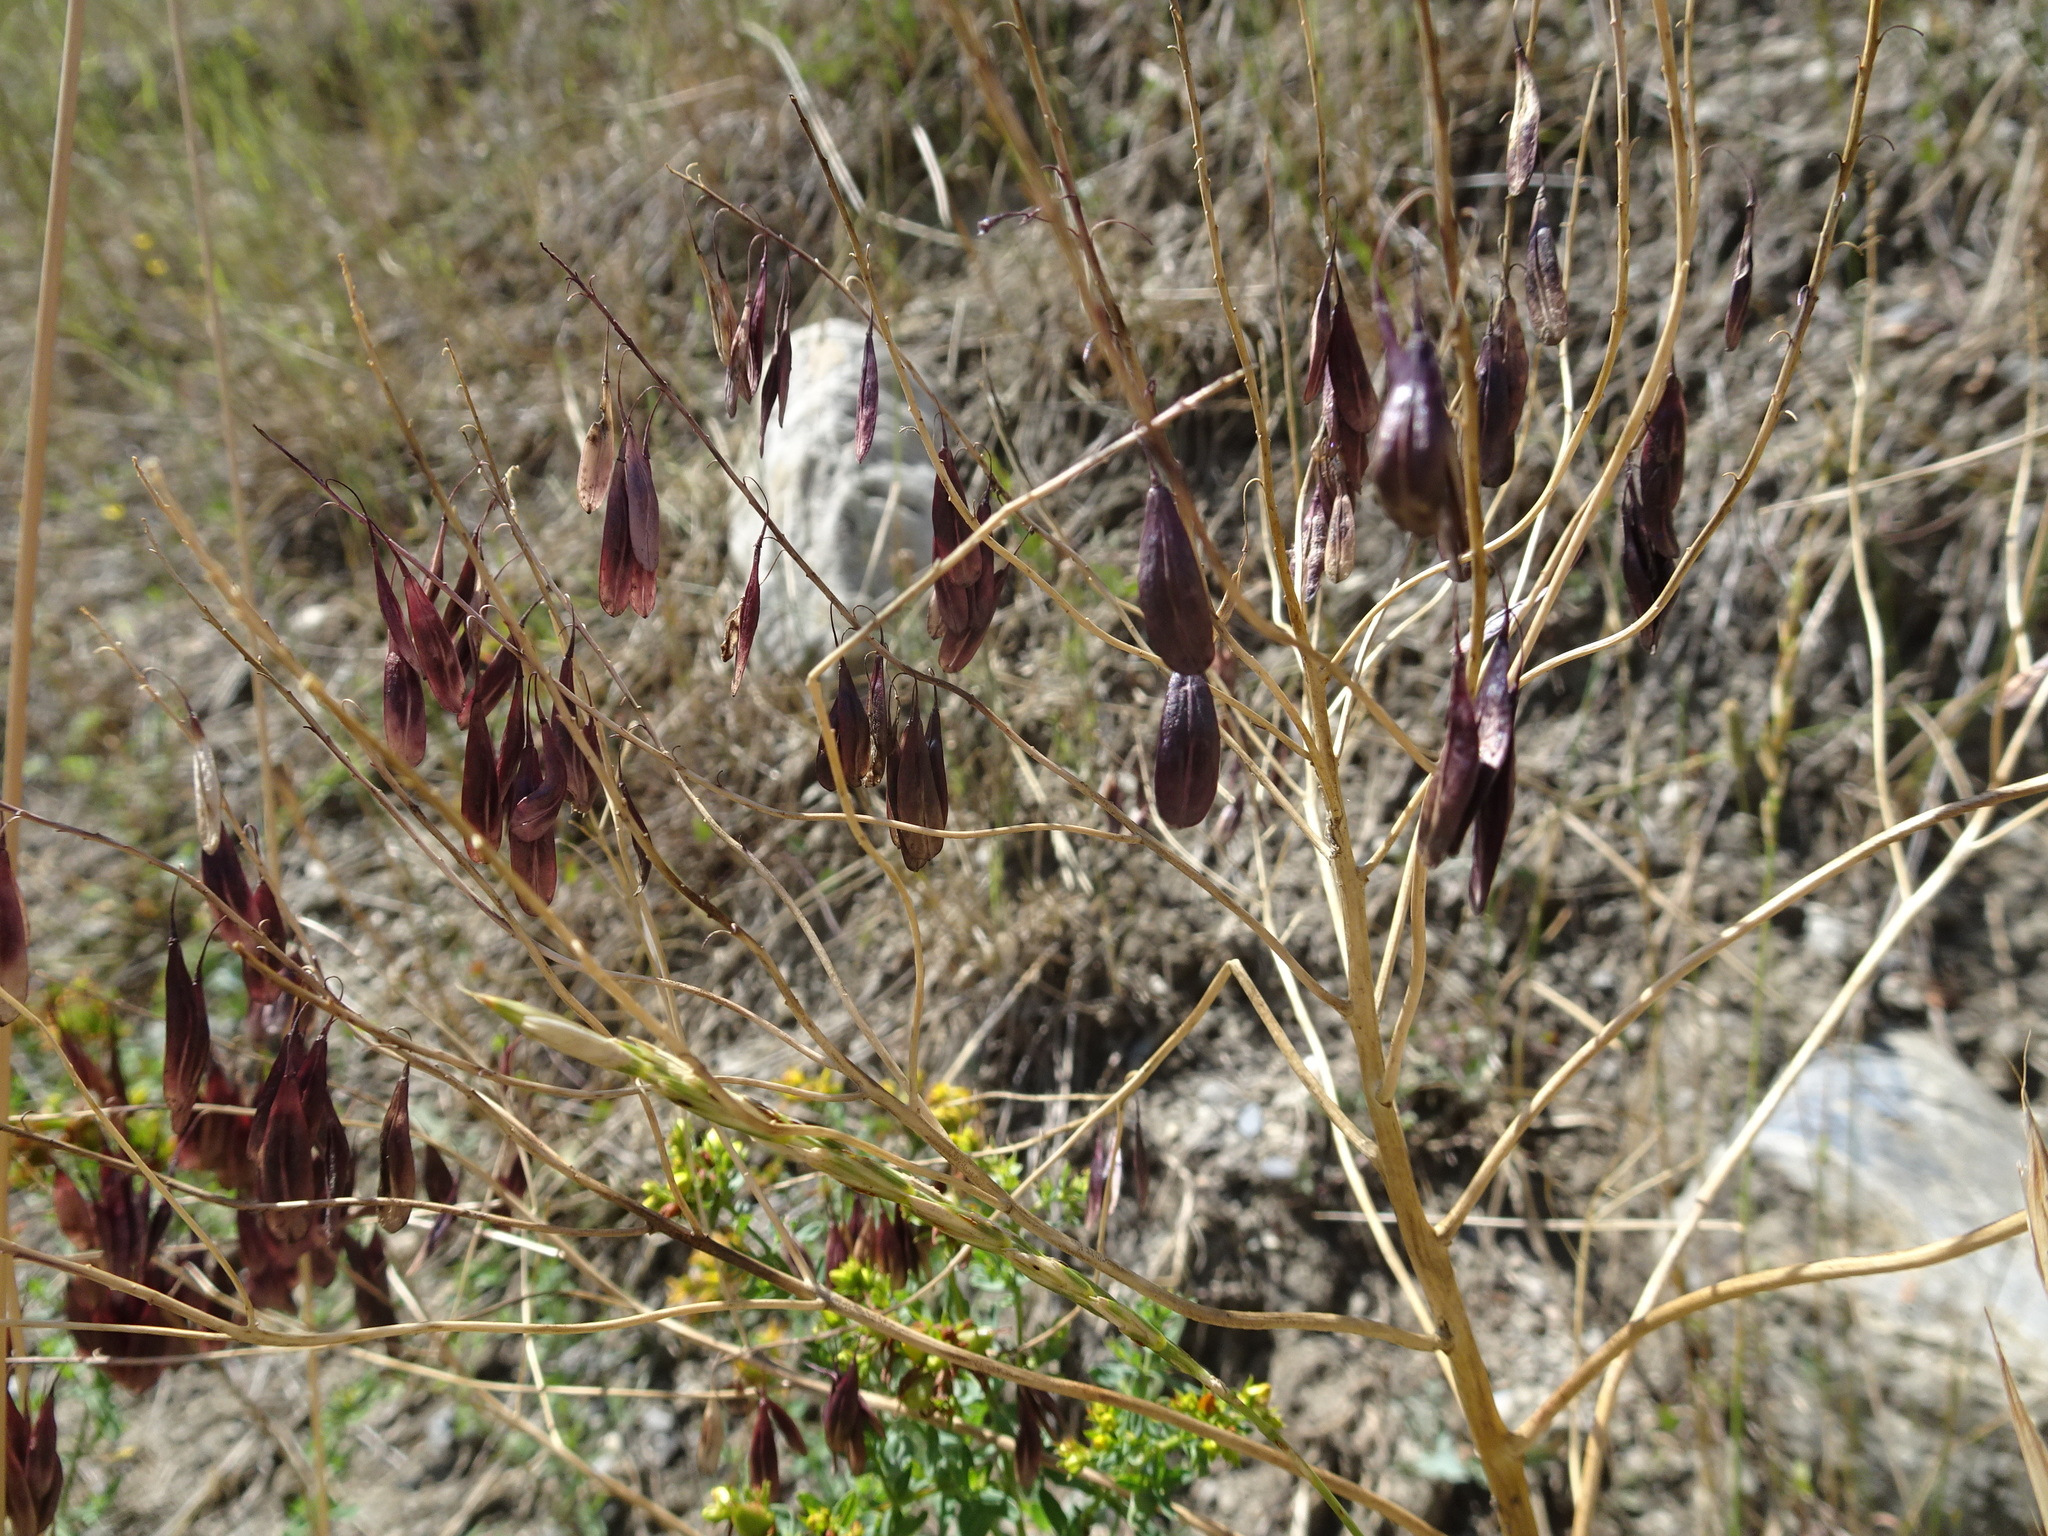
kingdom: Plantae
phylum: Tracheophyta
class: Magnoliopsida
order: Brassicales
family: Brassicaceae
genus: Isatis
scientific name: Isatis tinctoria
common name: Woad
